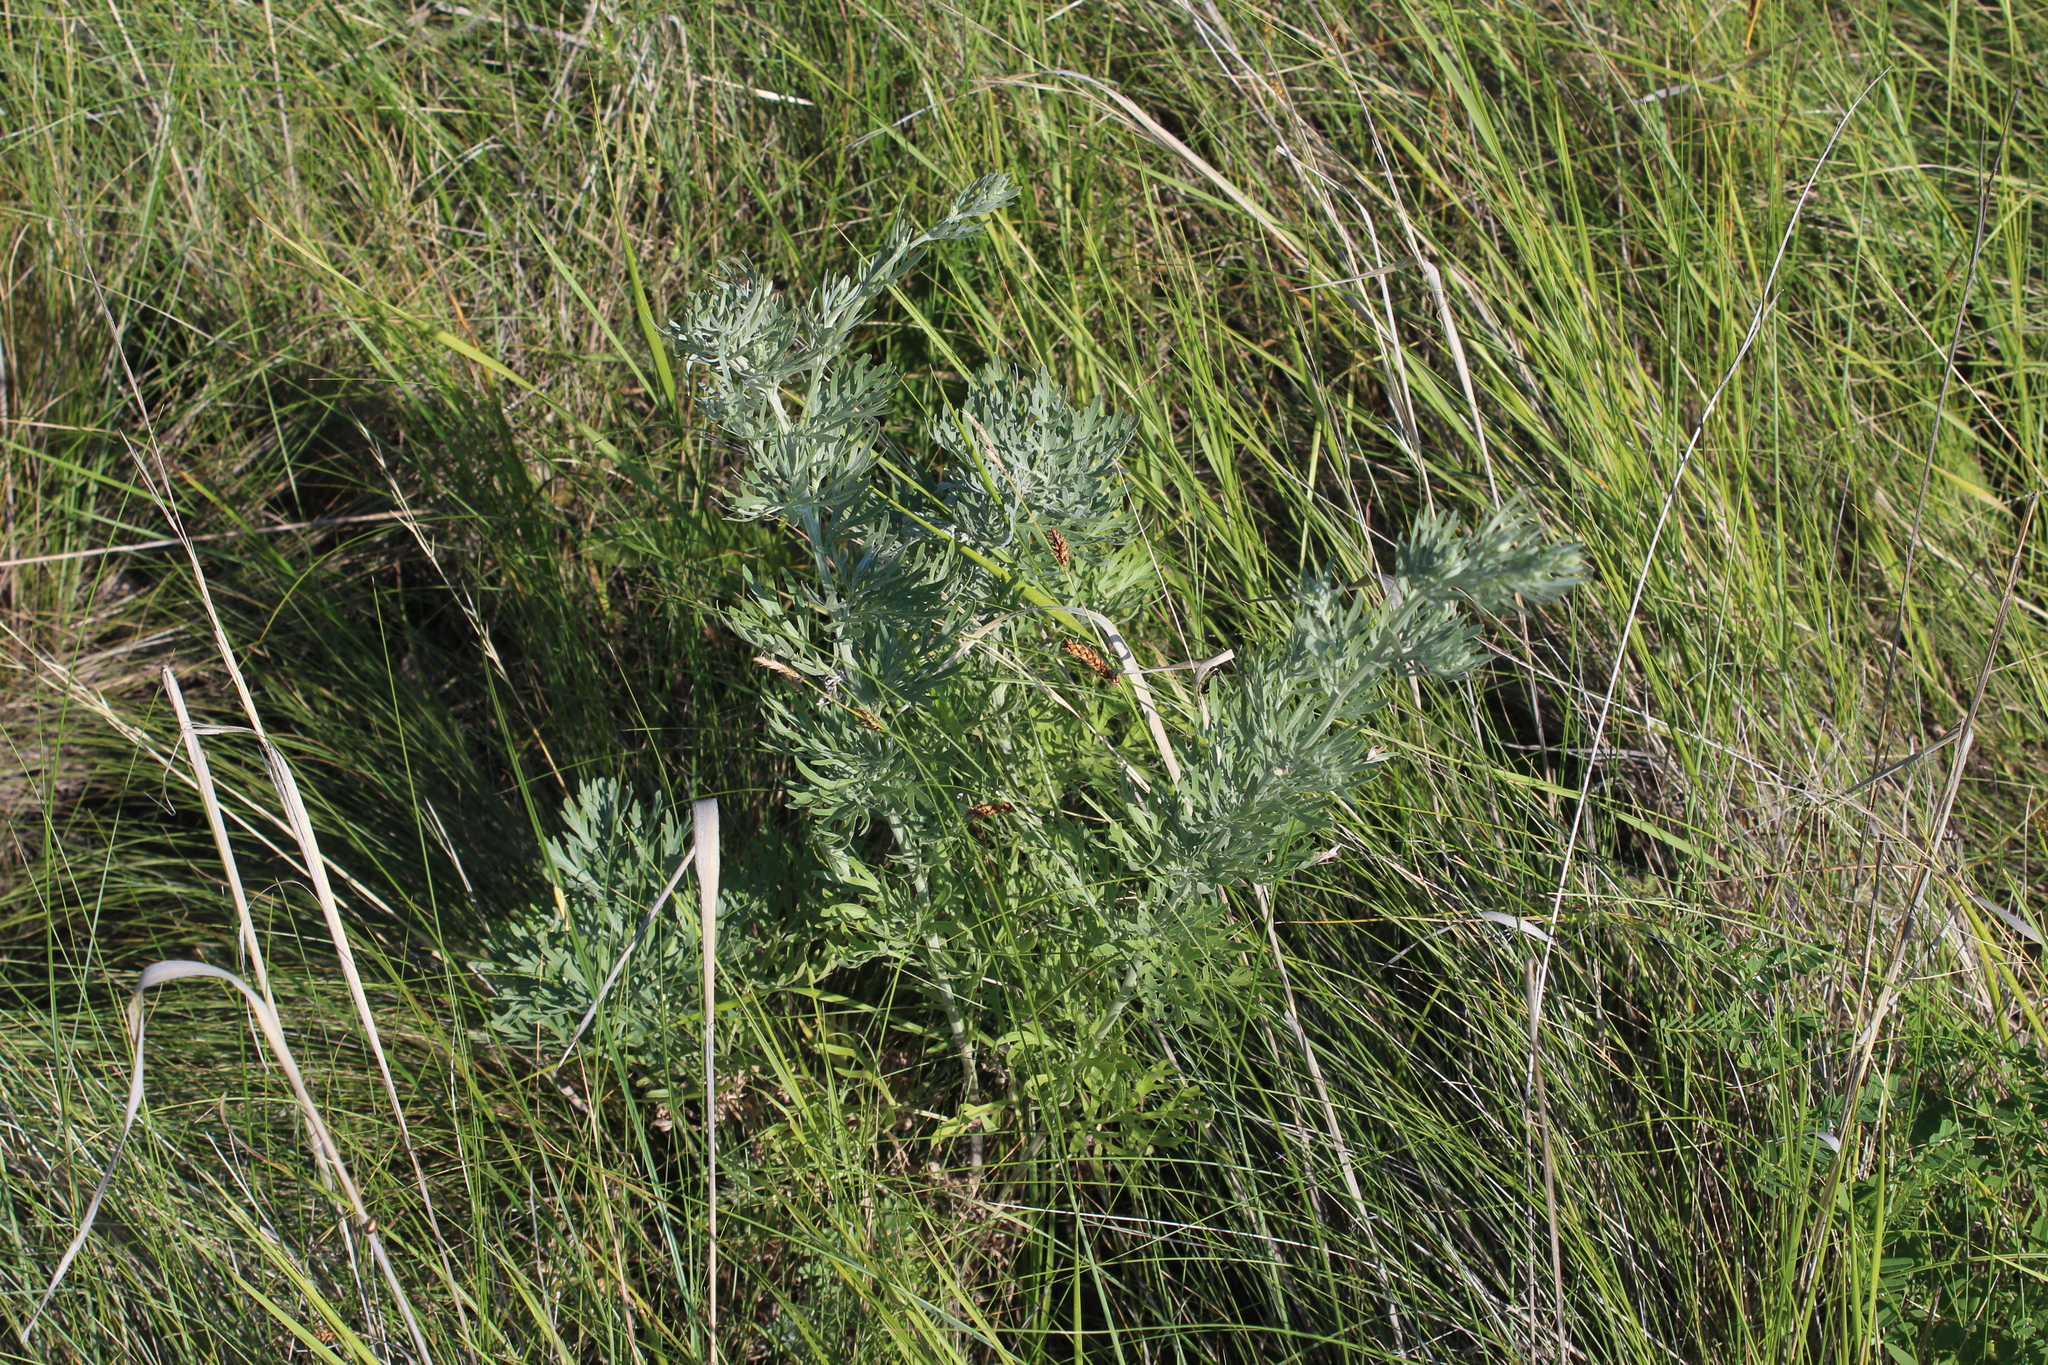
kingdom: Plantae
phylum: Tracheophyta
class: Magnoliopsida
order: Asterales
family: Asteraceae
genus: Artemisia
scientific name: Artemisia absinthium
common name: Wormwood
